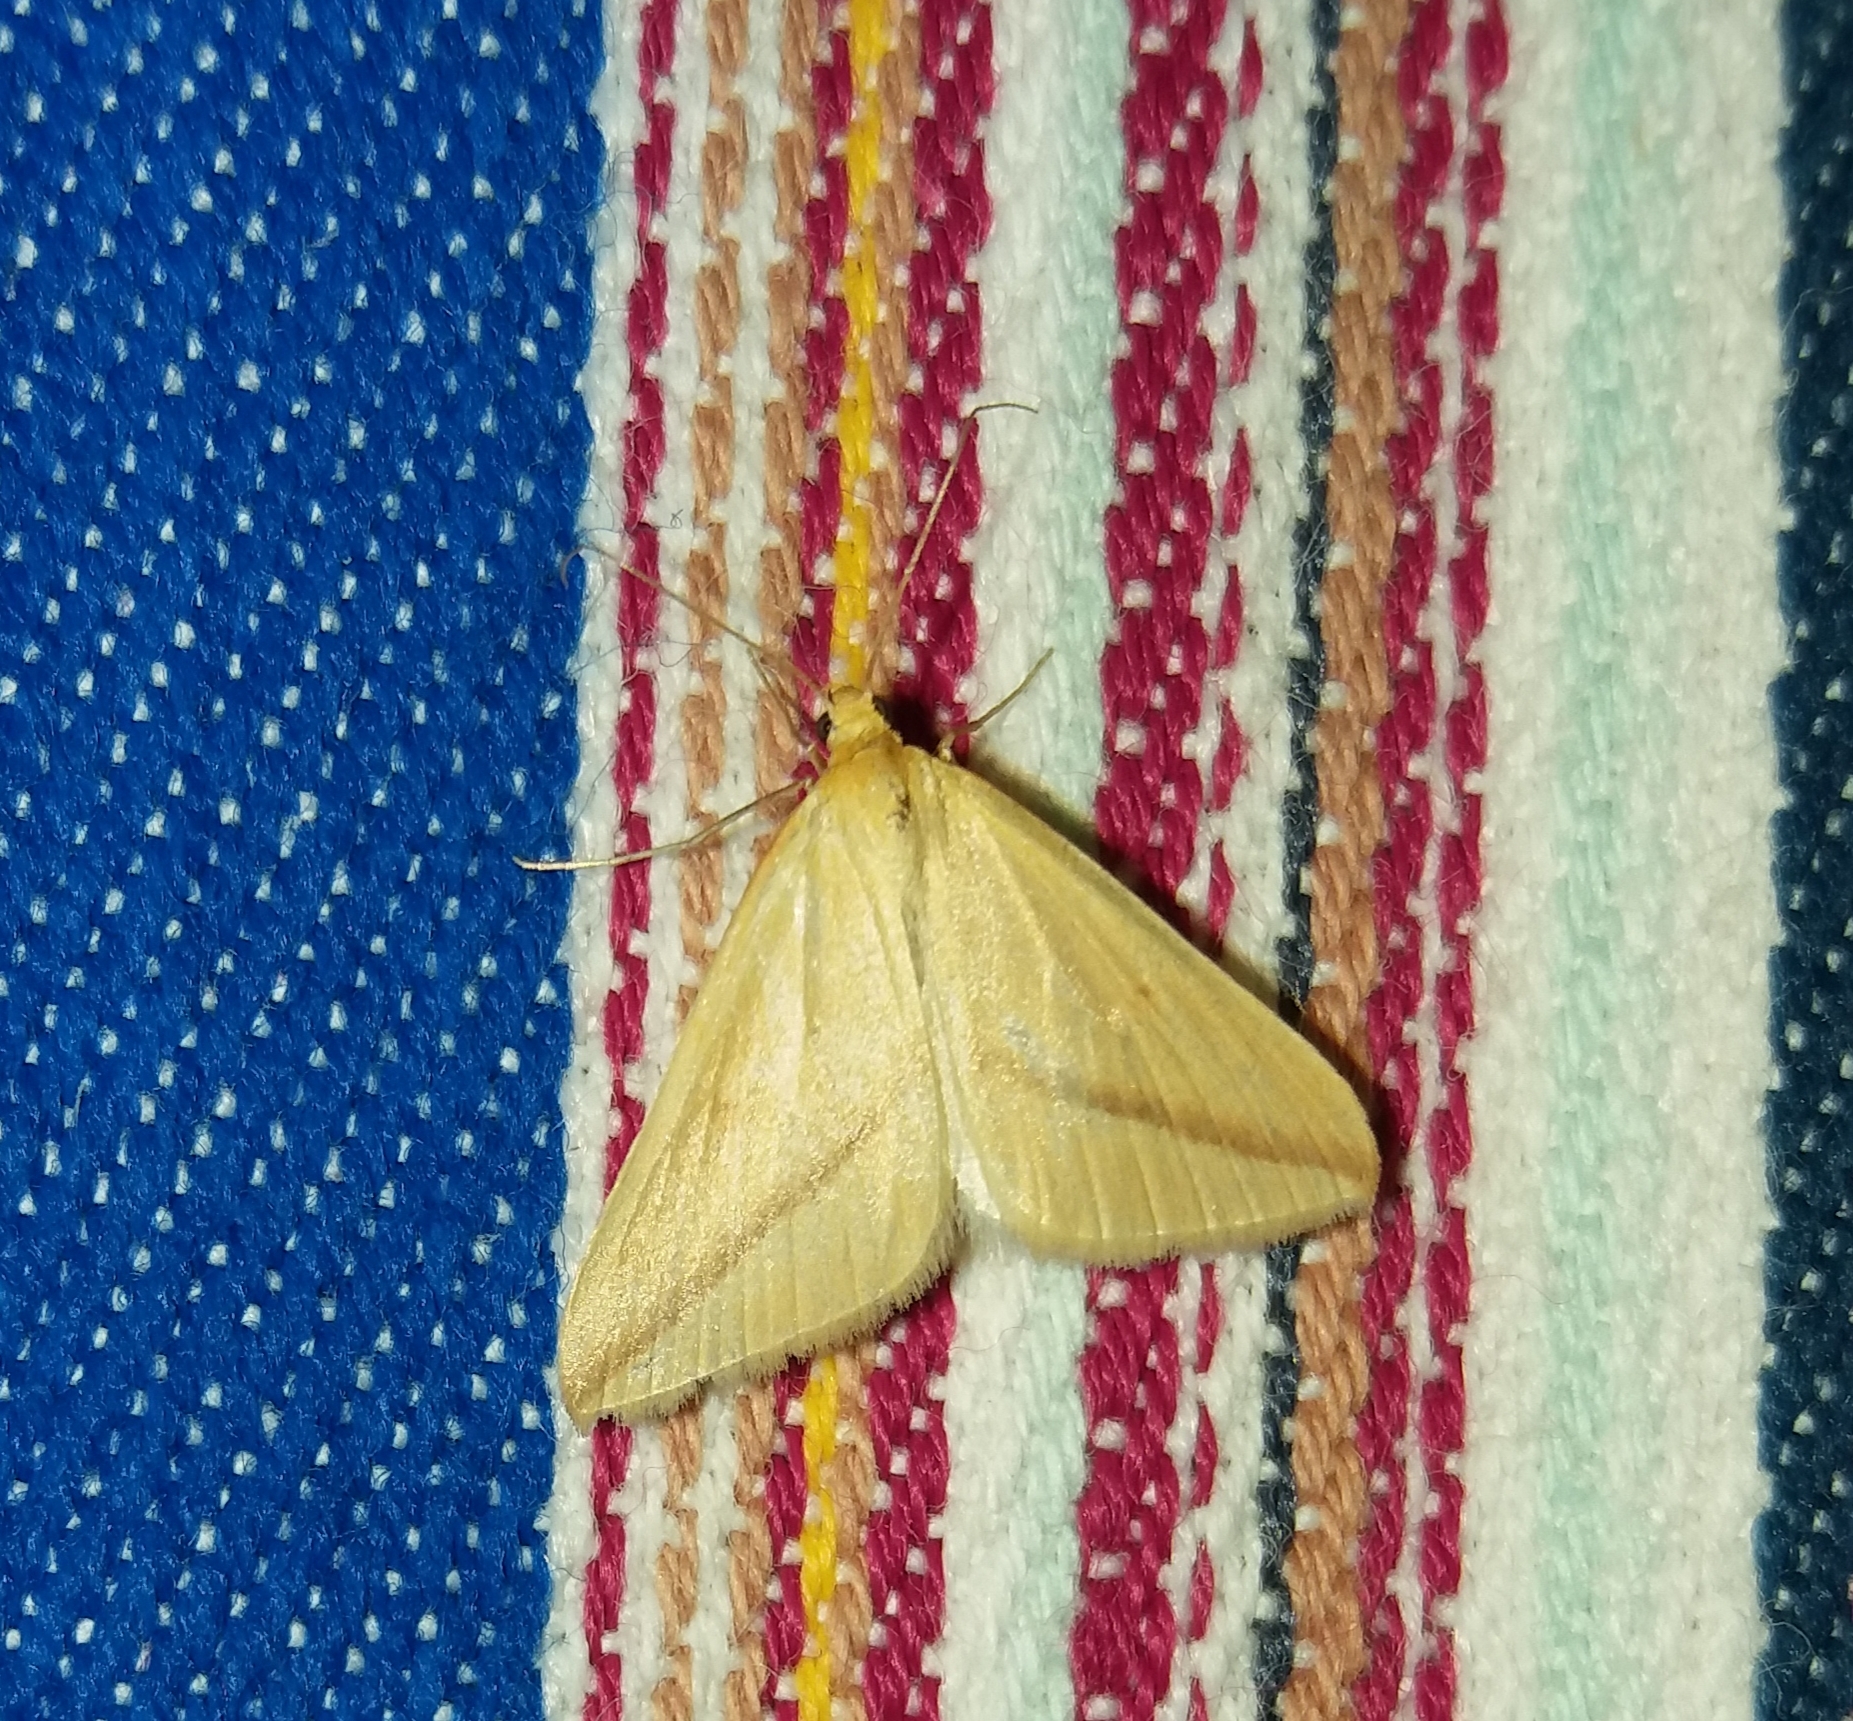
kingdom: Animalia
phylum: Arthropoda
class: Insecta
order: Lepidoptera
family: Geometridae
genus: Rhodometra
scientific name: Rhodometra sacraria
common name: Vestal
